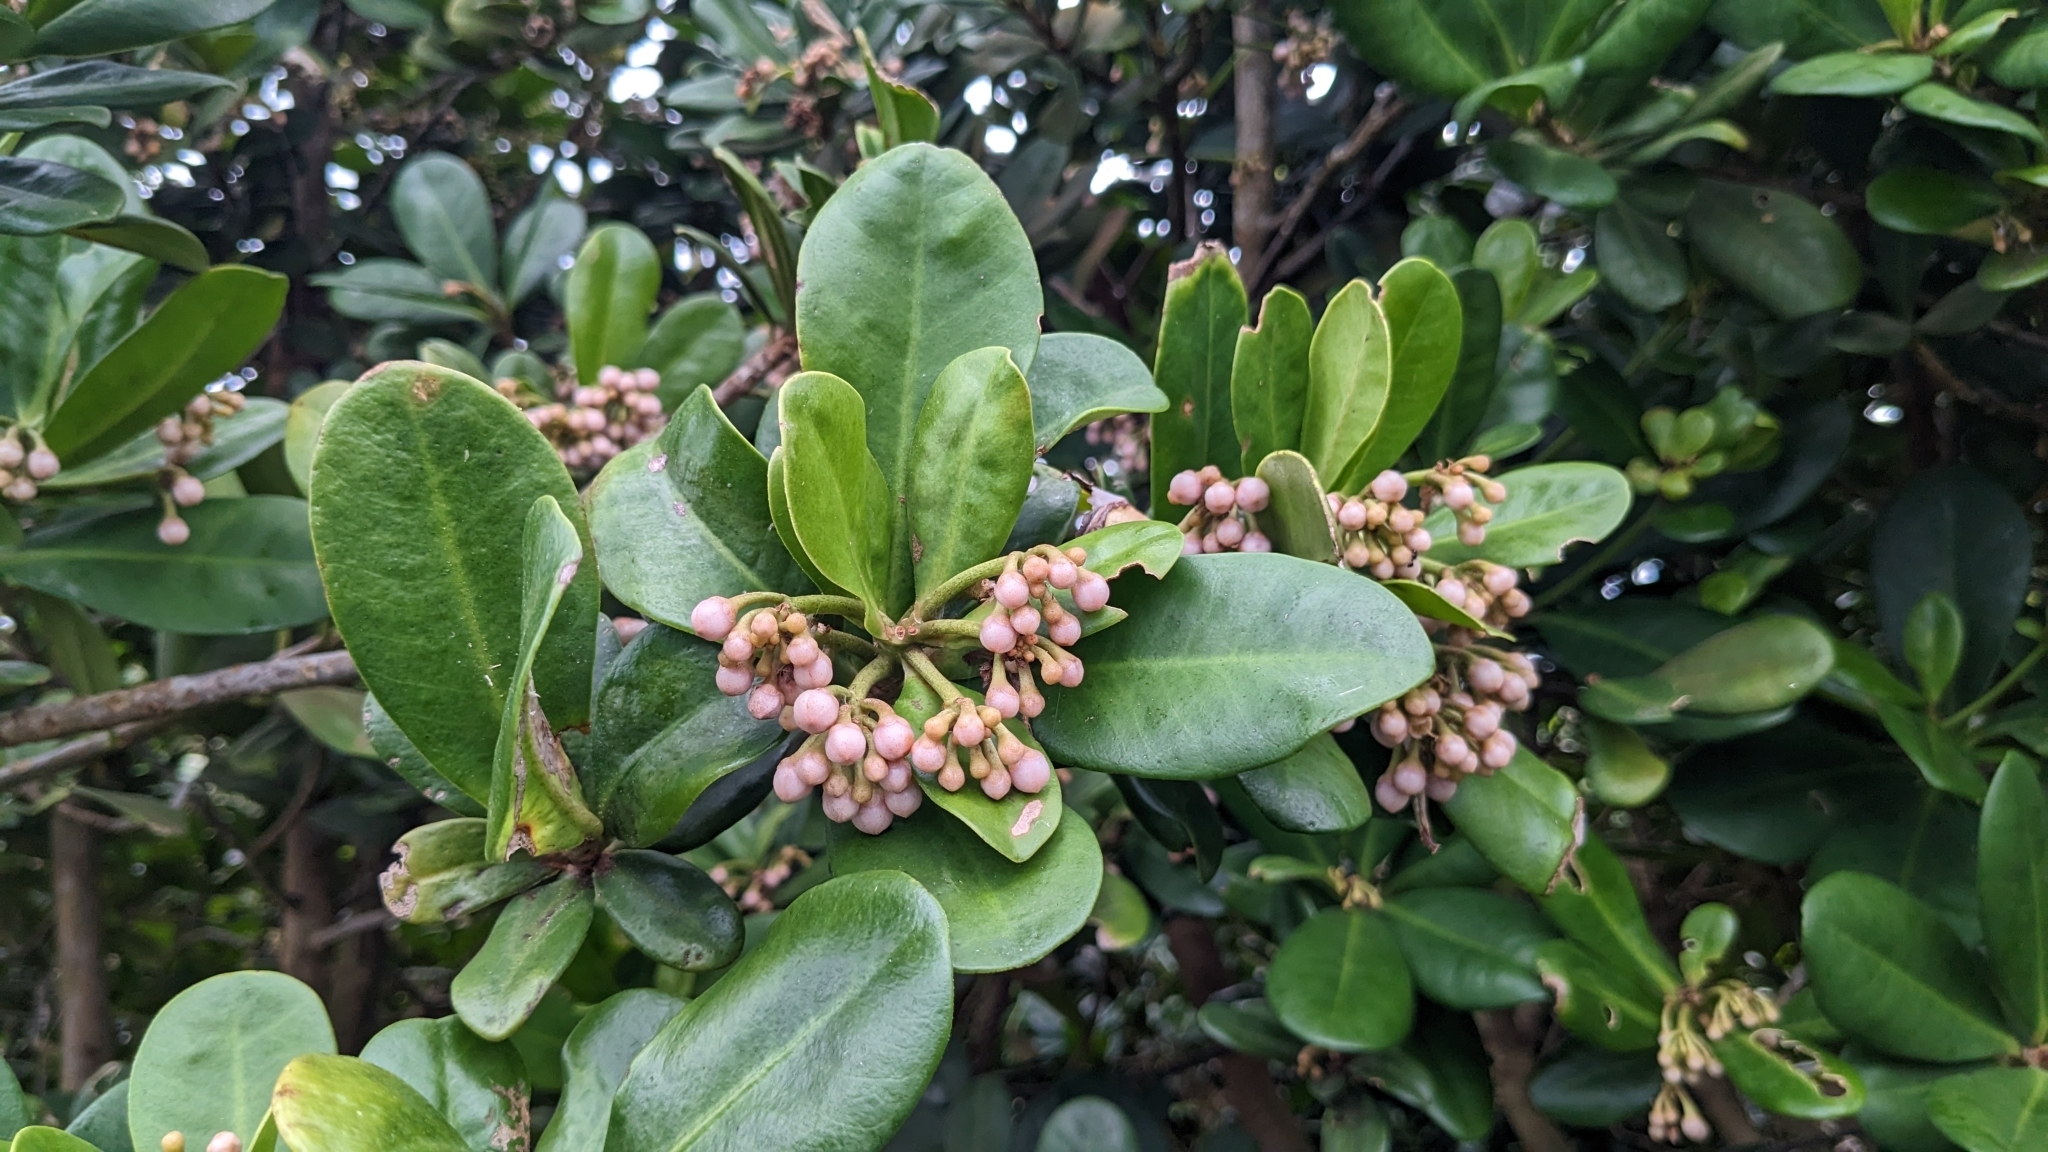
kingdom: Plantae
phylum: Tracheophyta
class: Magnoliopsida
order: Ericales
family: Primulaceae
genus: Ardisia
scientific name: Ardisia elliptica
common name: Shoebutton
